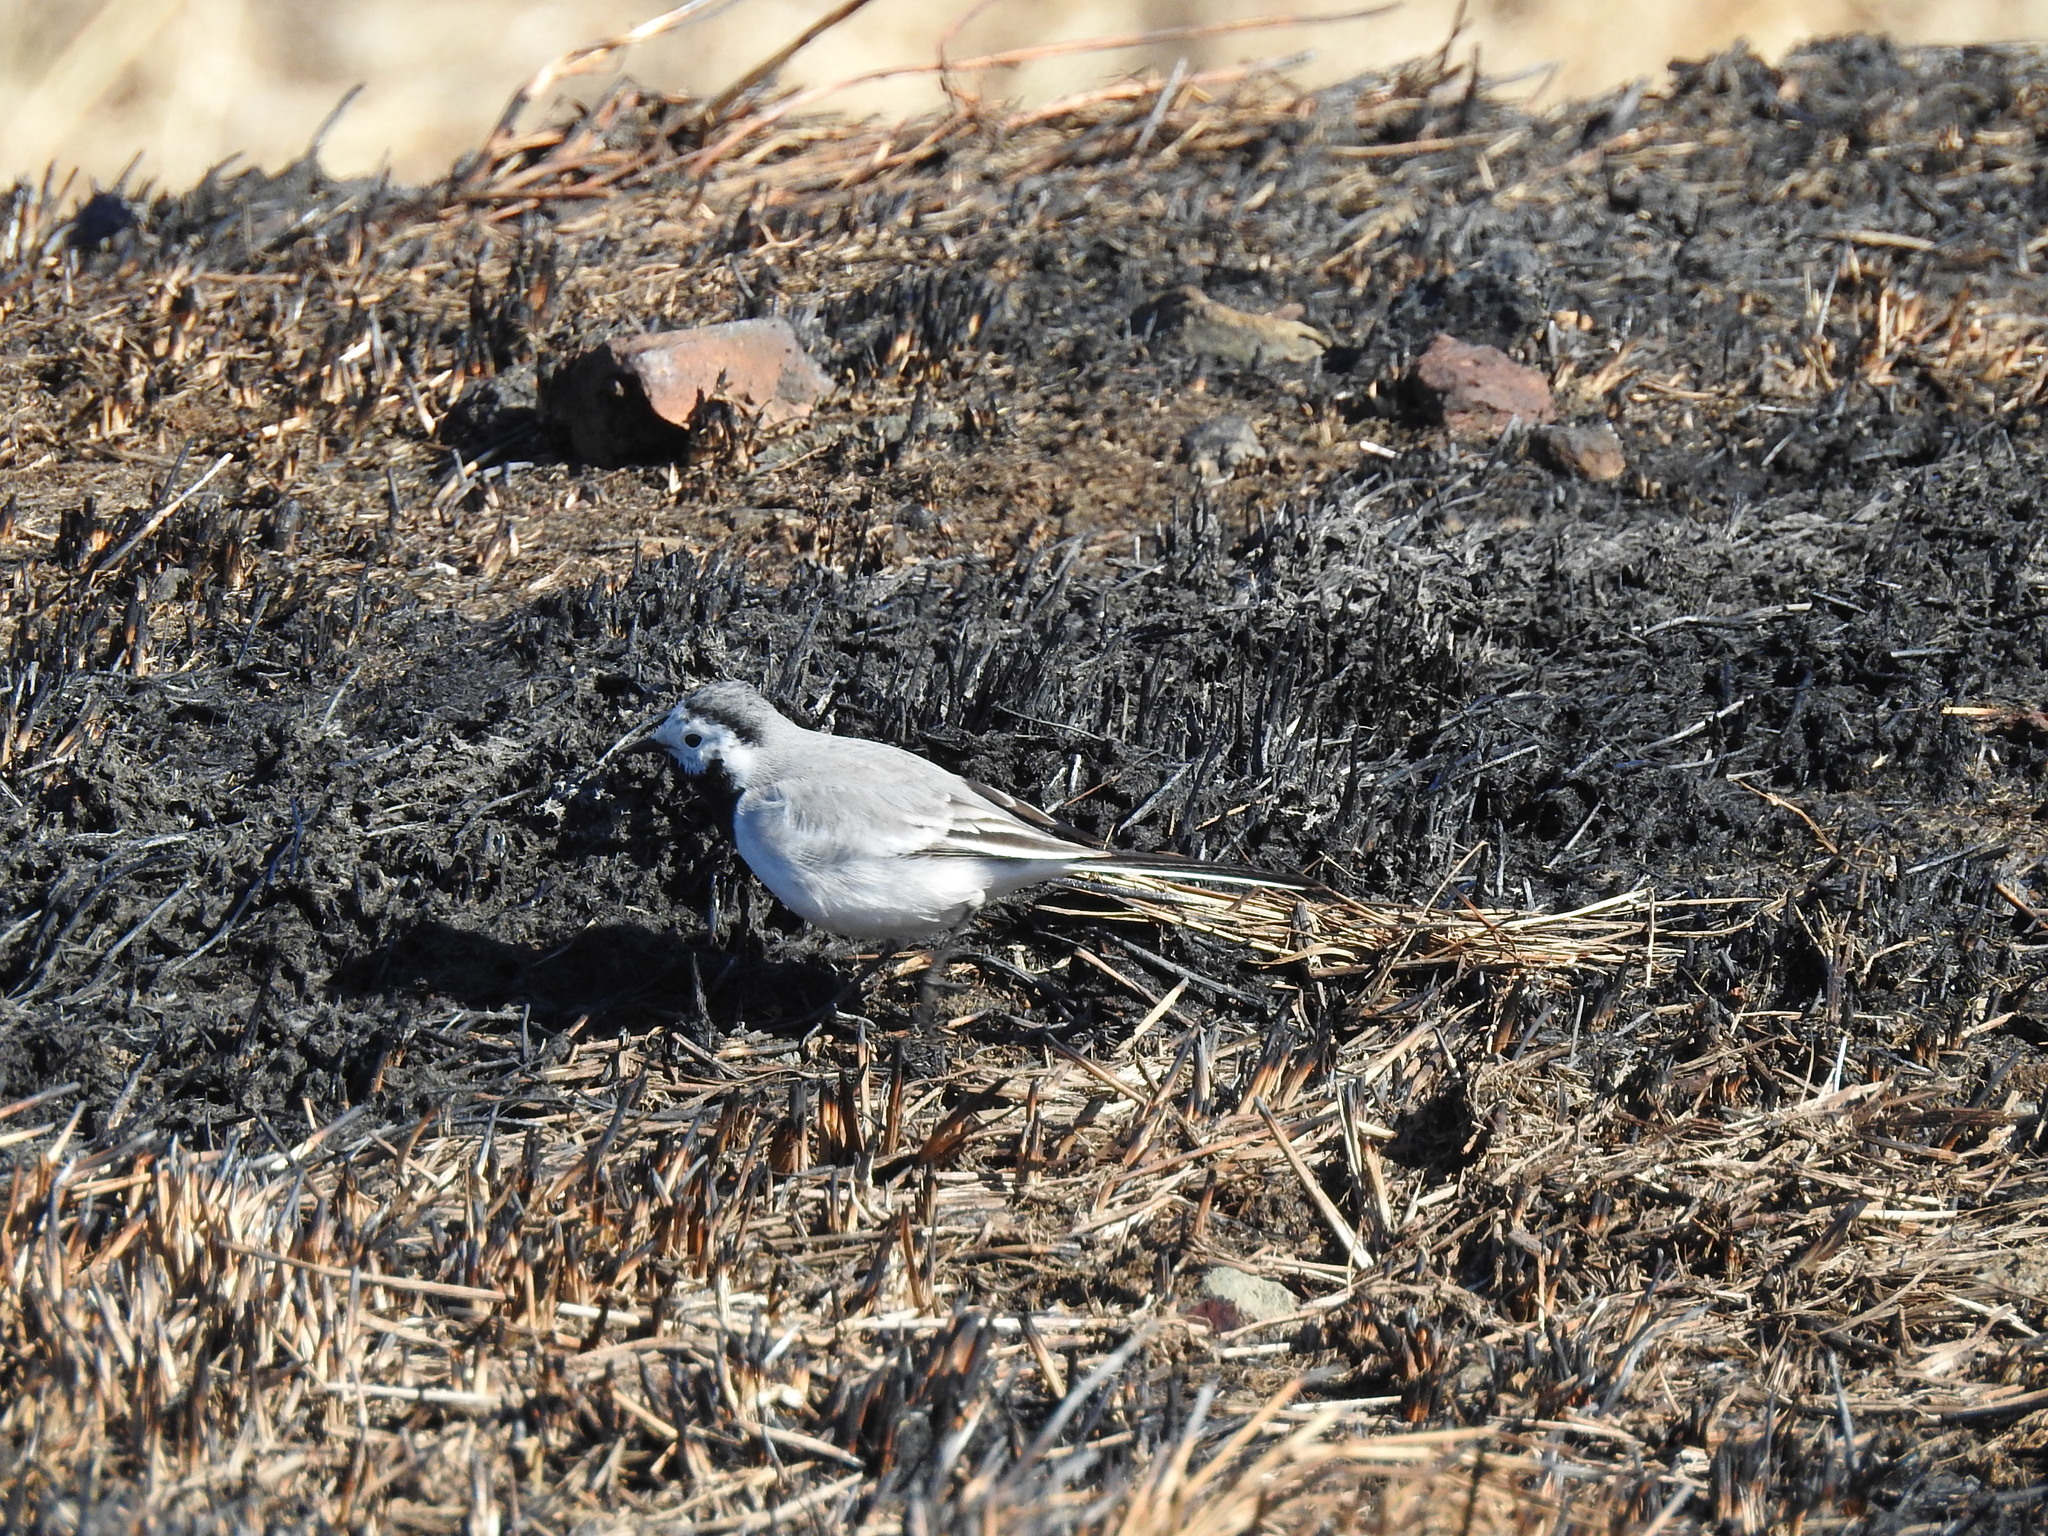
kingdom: Animalia
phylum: Chordata
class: Aves
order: Passeriformes
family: Motacillidae
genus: Motacilla
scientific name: Motacilla alba
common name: White wagtail
